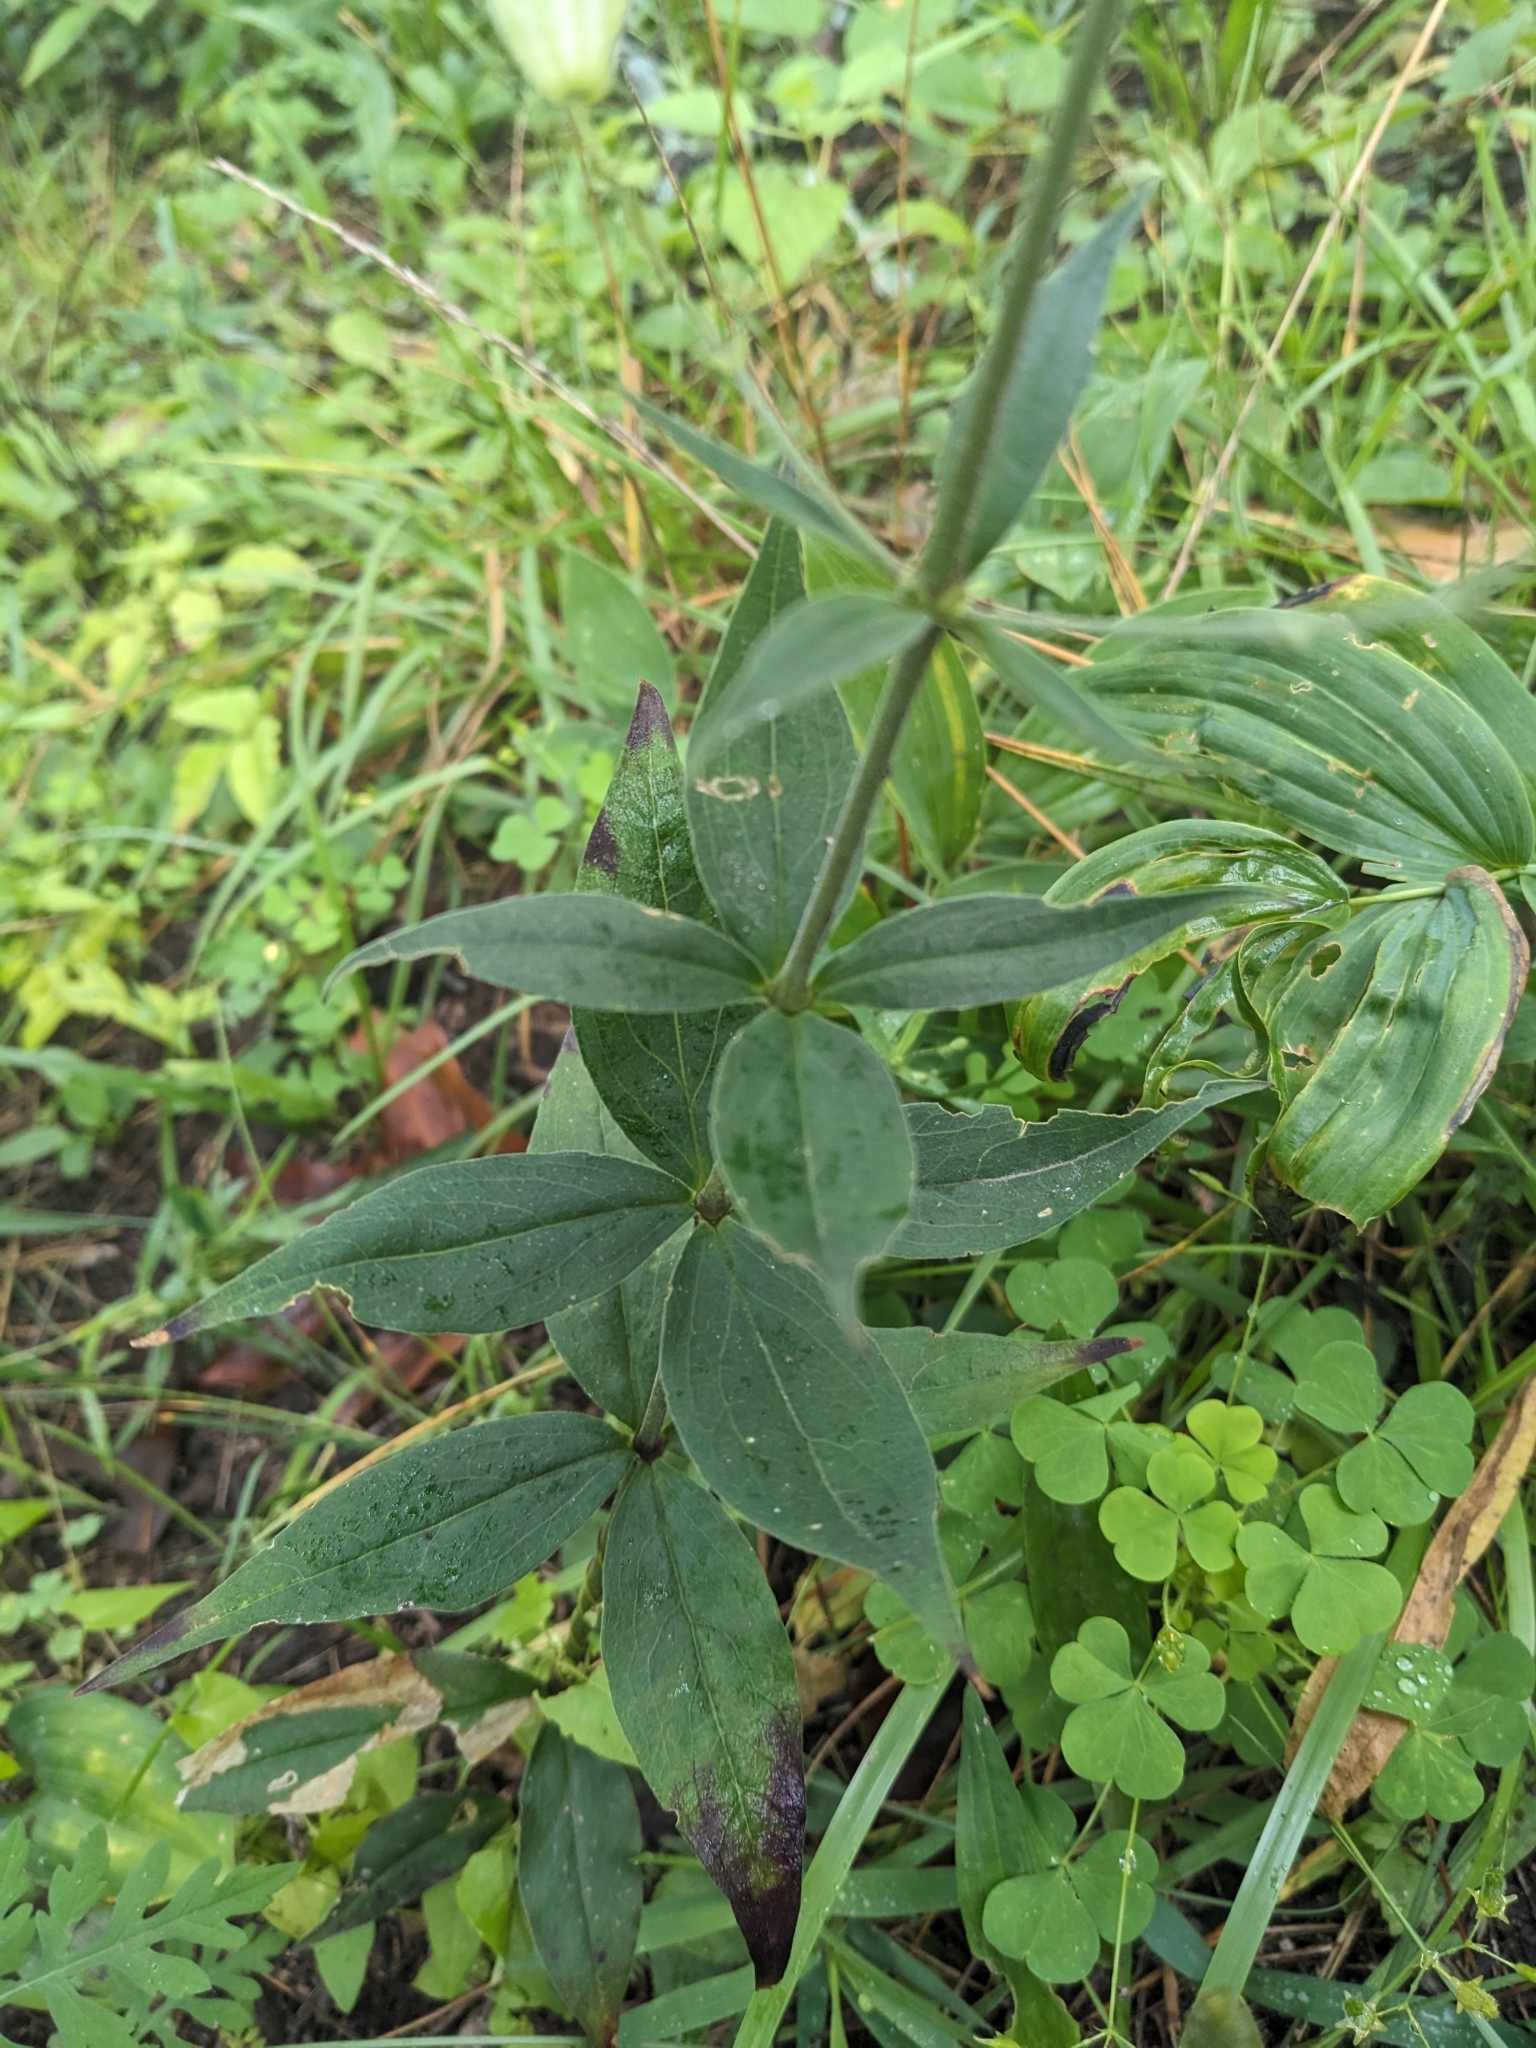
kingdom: Plantae
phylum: Tracheophyta
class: Magnoliopsida
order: Caryophyllales
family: Caryophyllaceae
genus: Silene
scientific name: Silene stellata
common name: Starry campion
